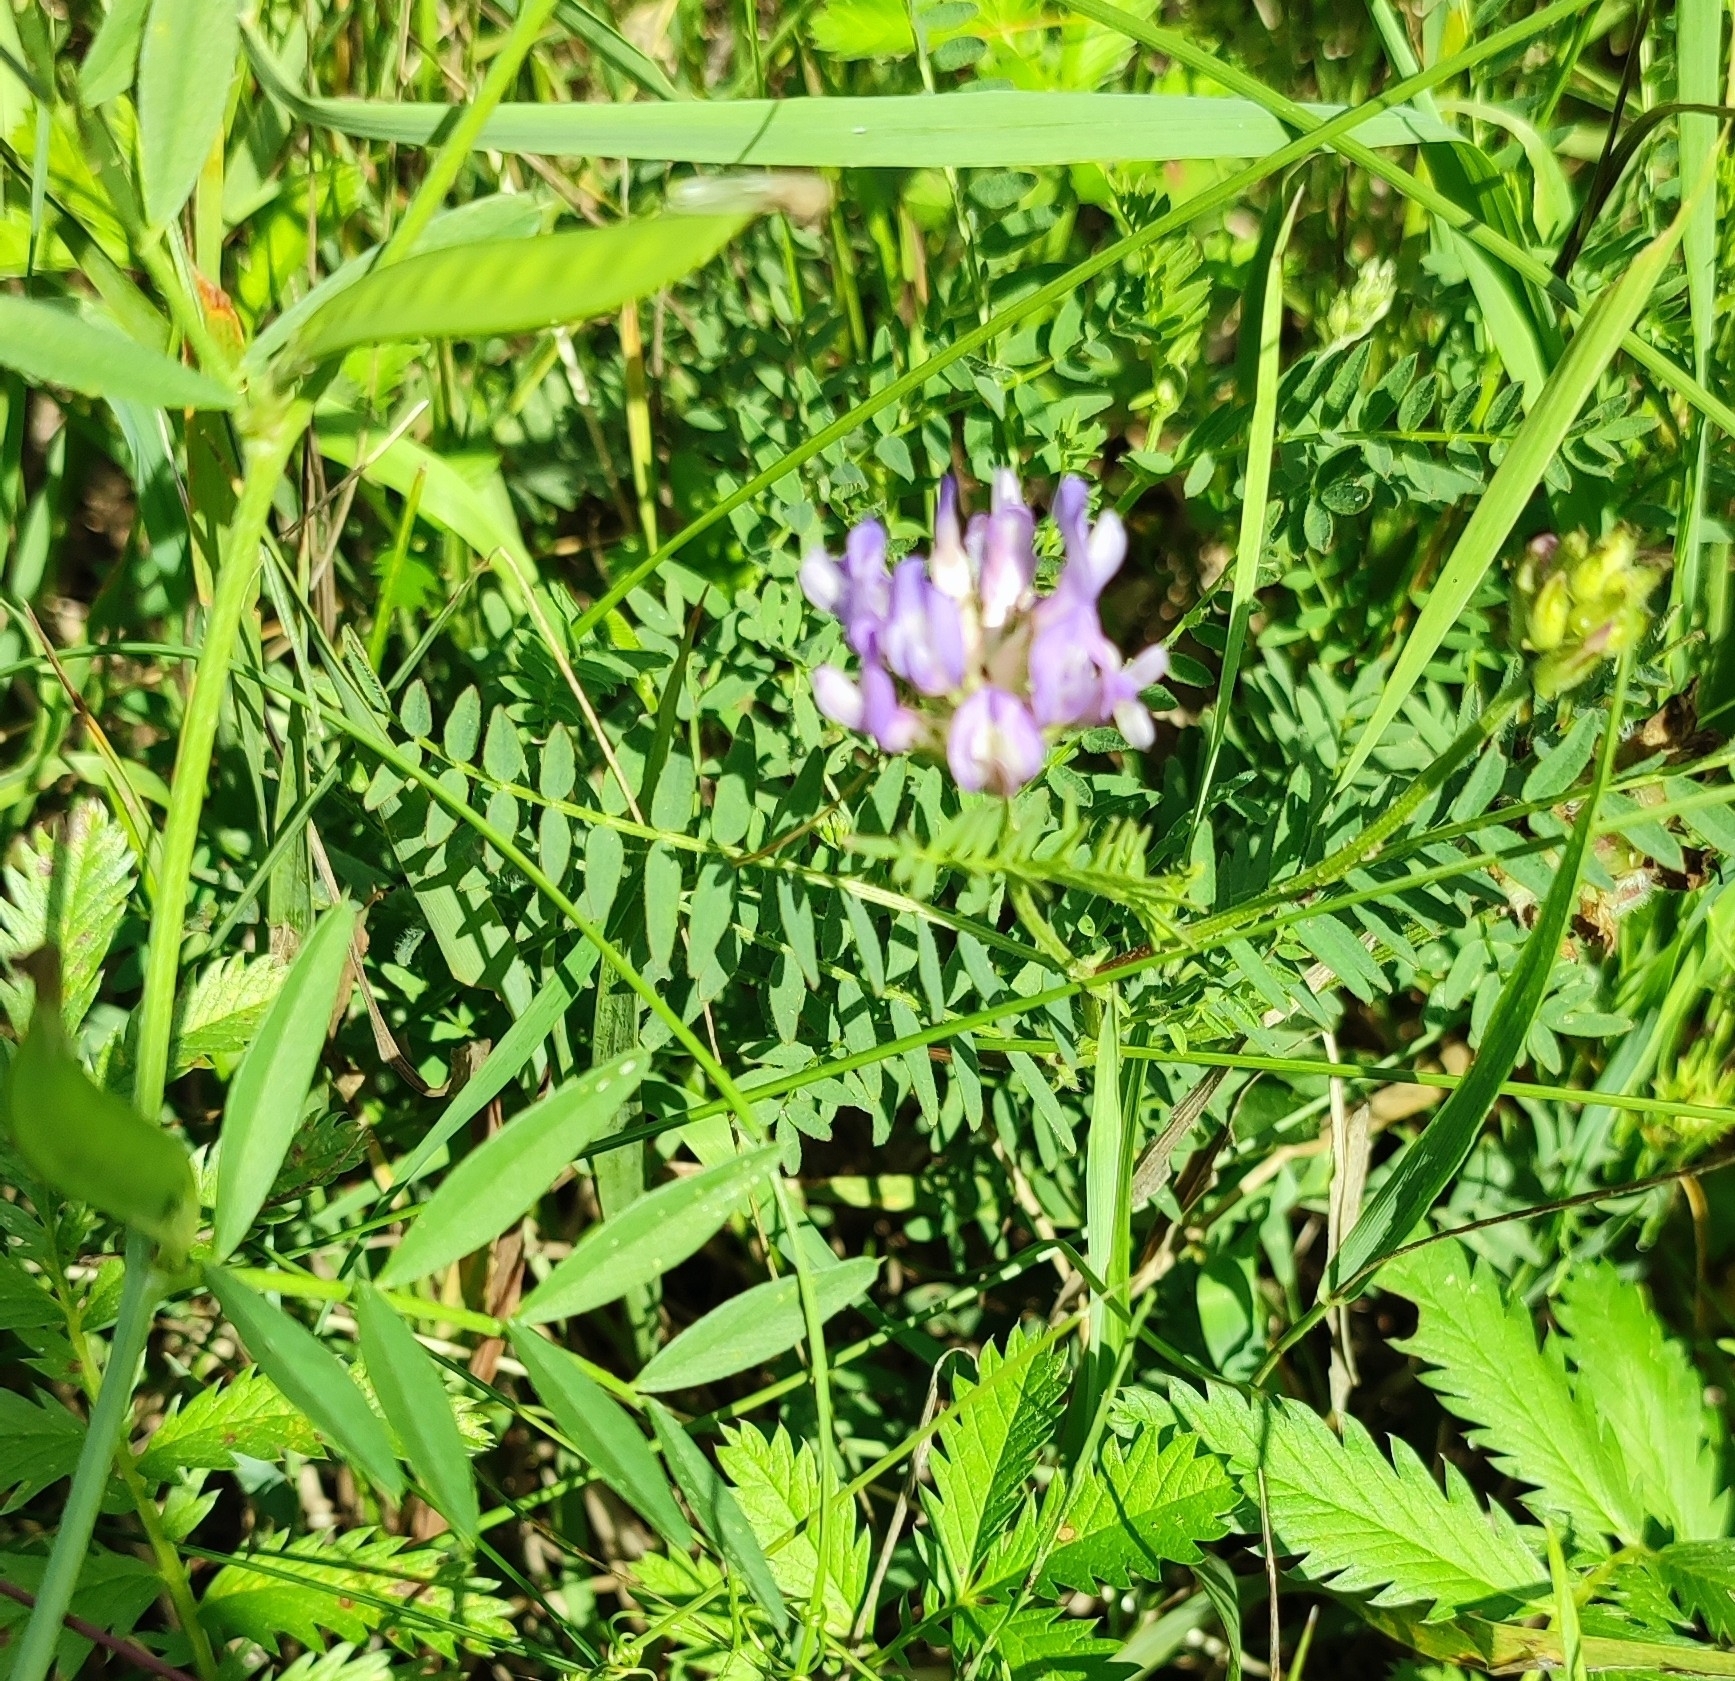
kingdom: Plantae
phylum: Tracheophyta
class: Magnoliopsida
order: Fabales
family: Fabaceae
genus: Astragalus
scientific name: Astragalus danicus
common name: Purple milk-vetch
